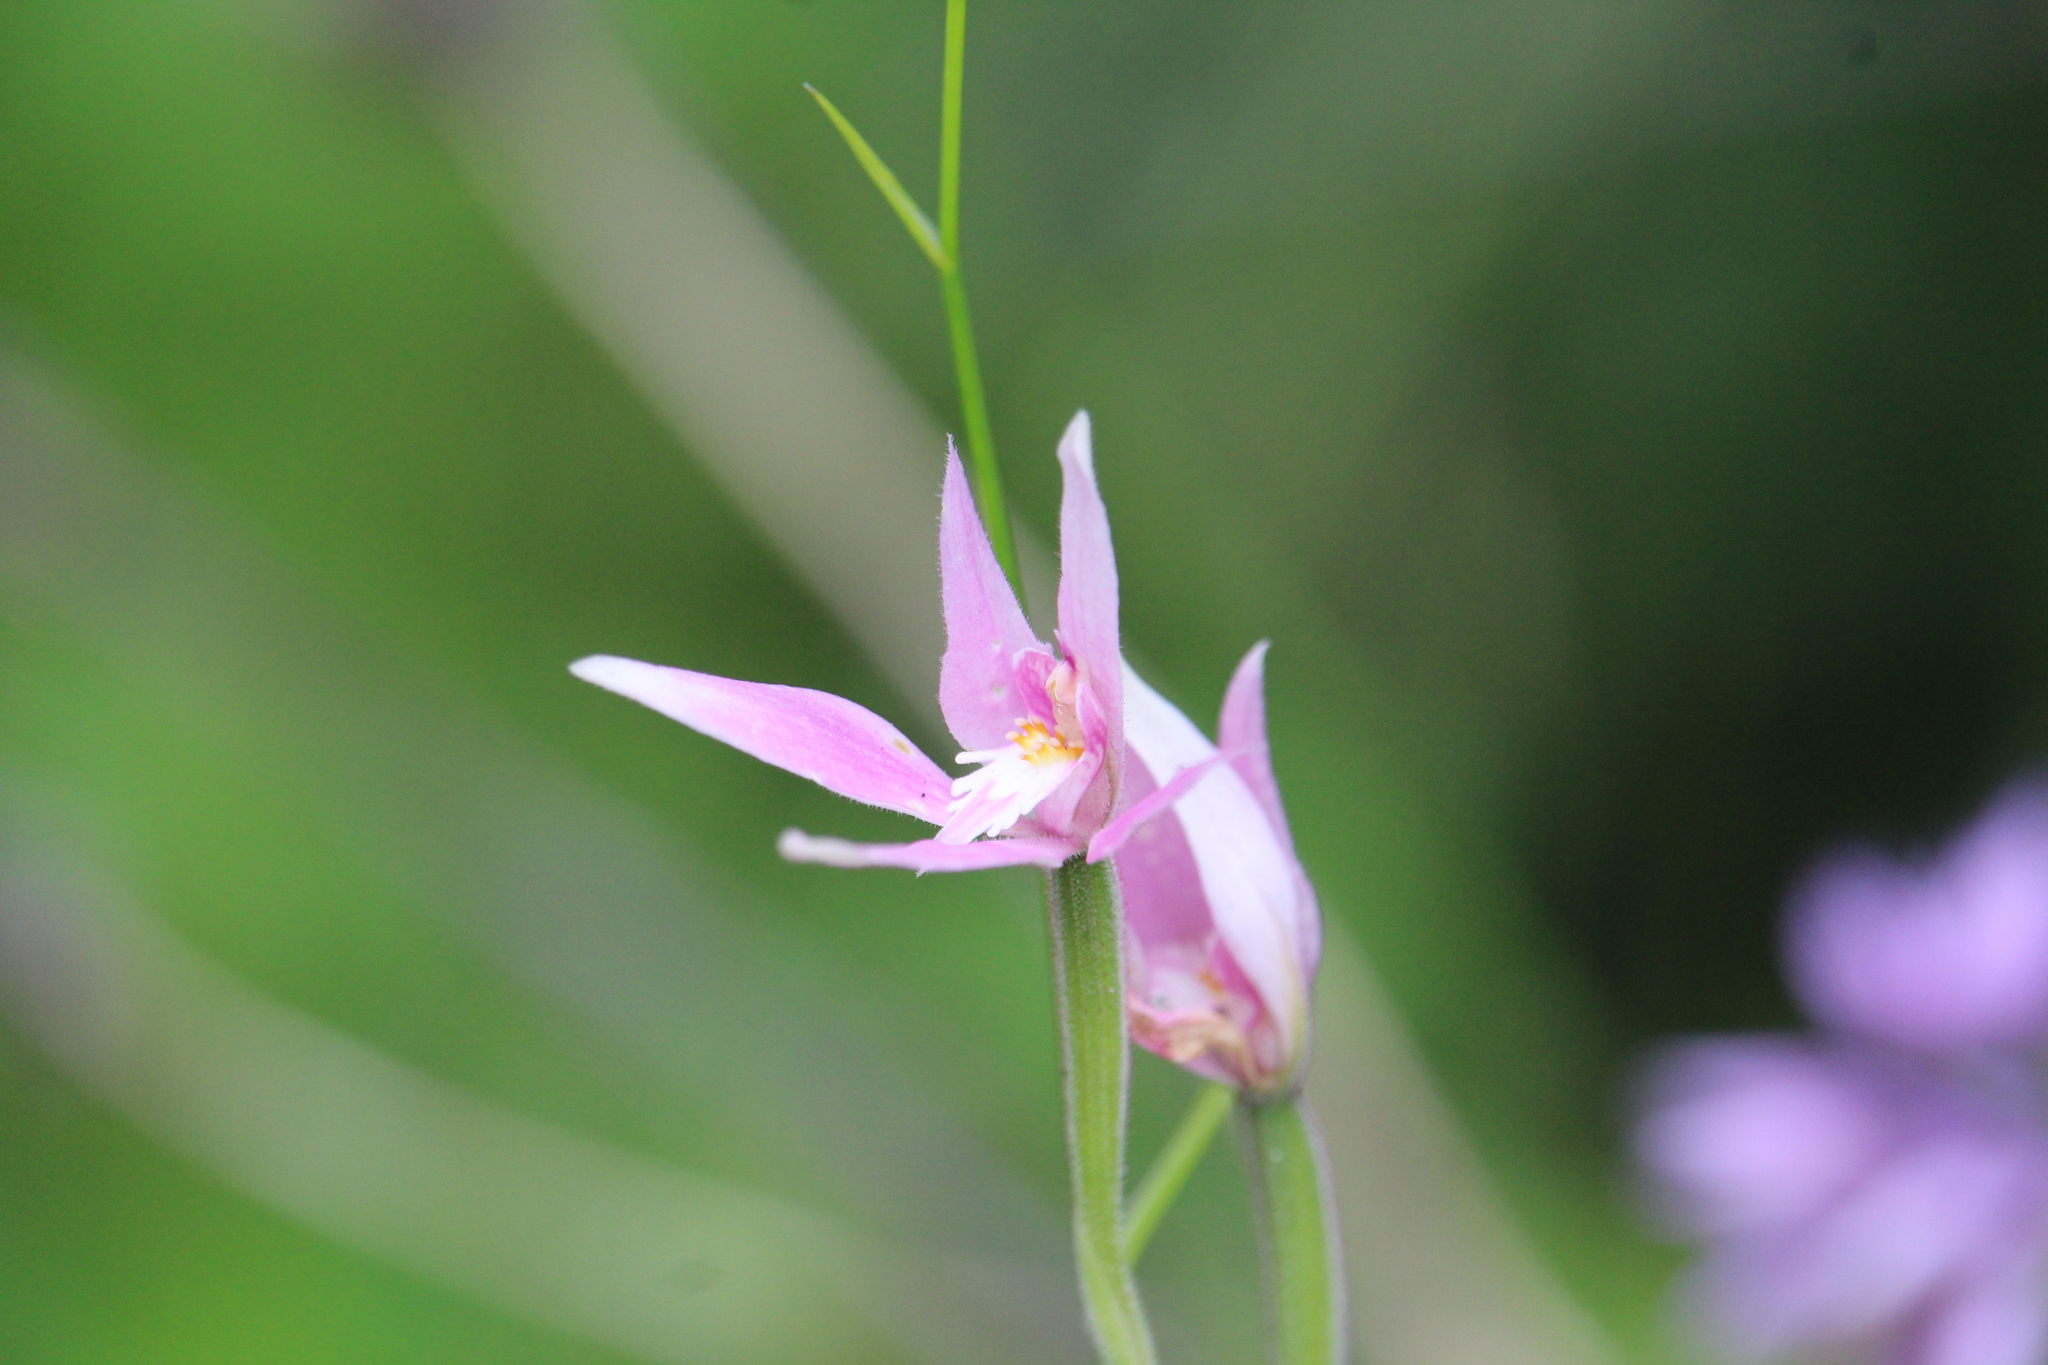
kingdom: Plantae
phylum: Tracheophyta
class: Liliopsida
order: Asparagales
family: Orchidaceae
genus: Caladenia
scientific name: Caladenia latifolia
